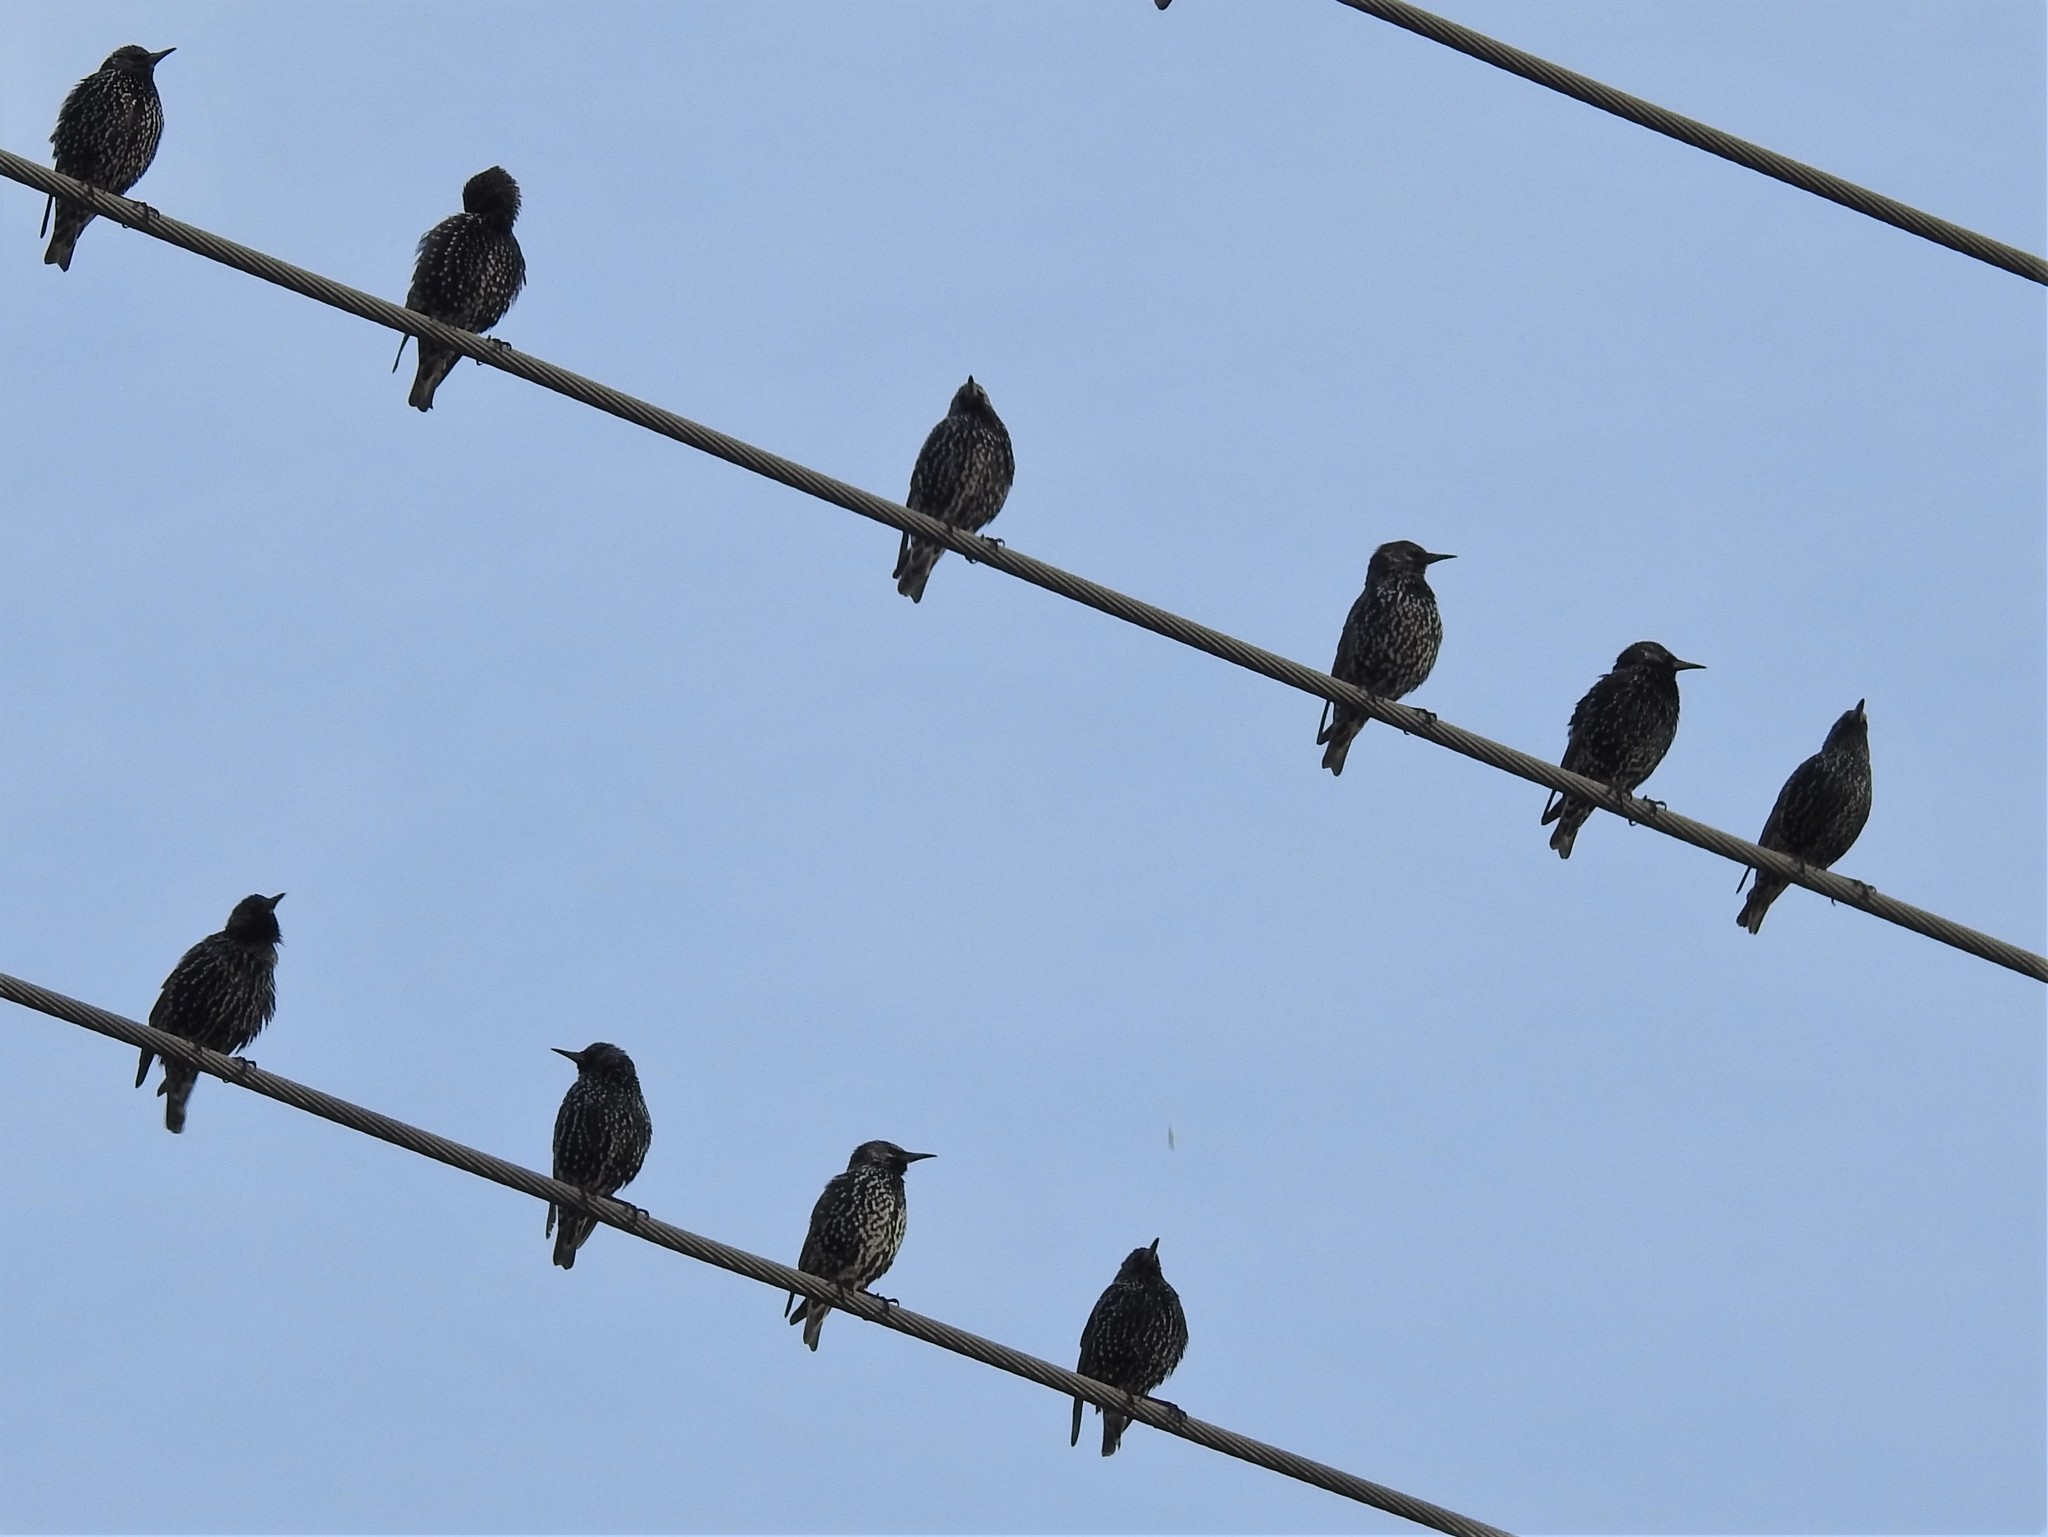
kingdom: Animalia
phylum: Chordata
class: Aves
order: Passeriformes
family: Sturnidae
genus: Sturnus
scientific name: Sturnus vulgaris
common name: Common starling
